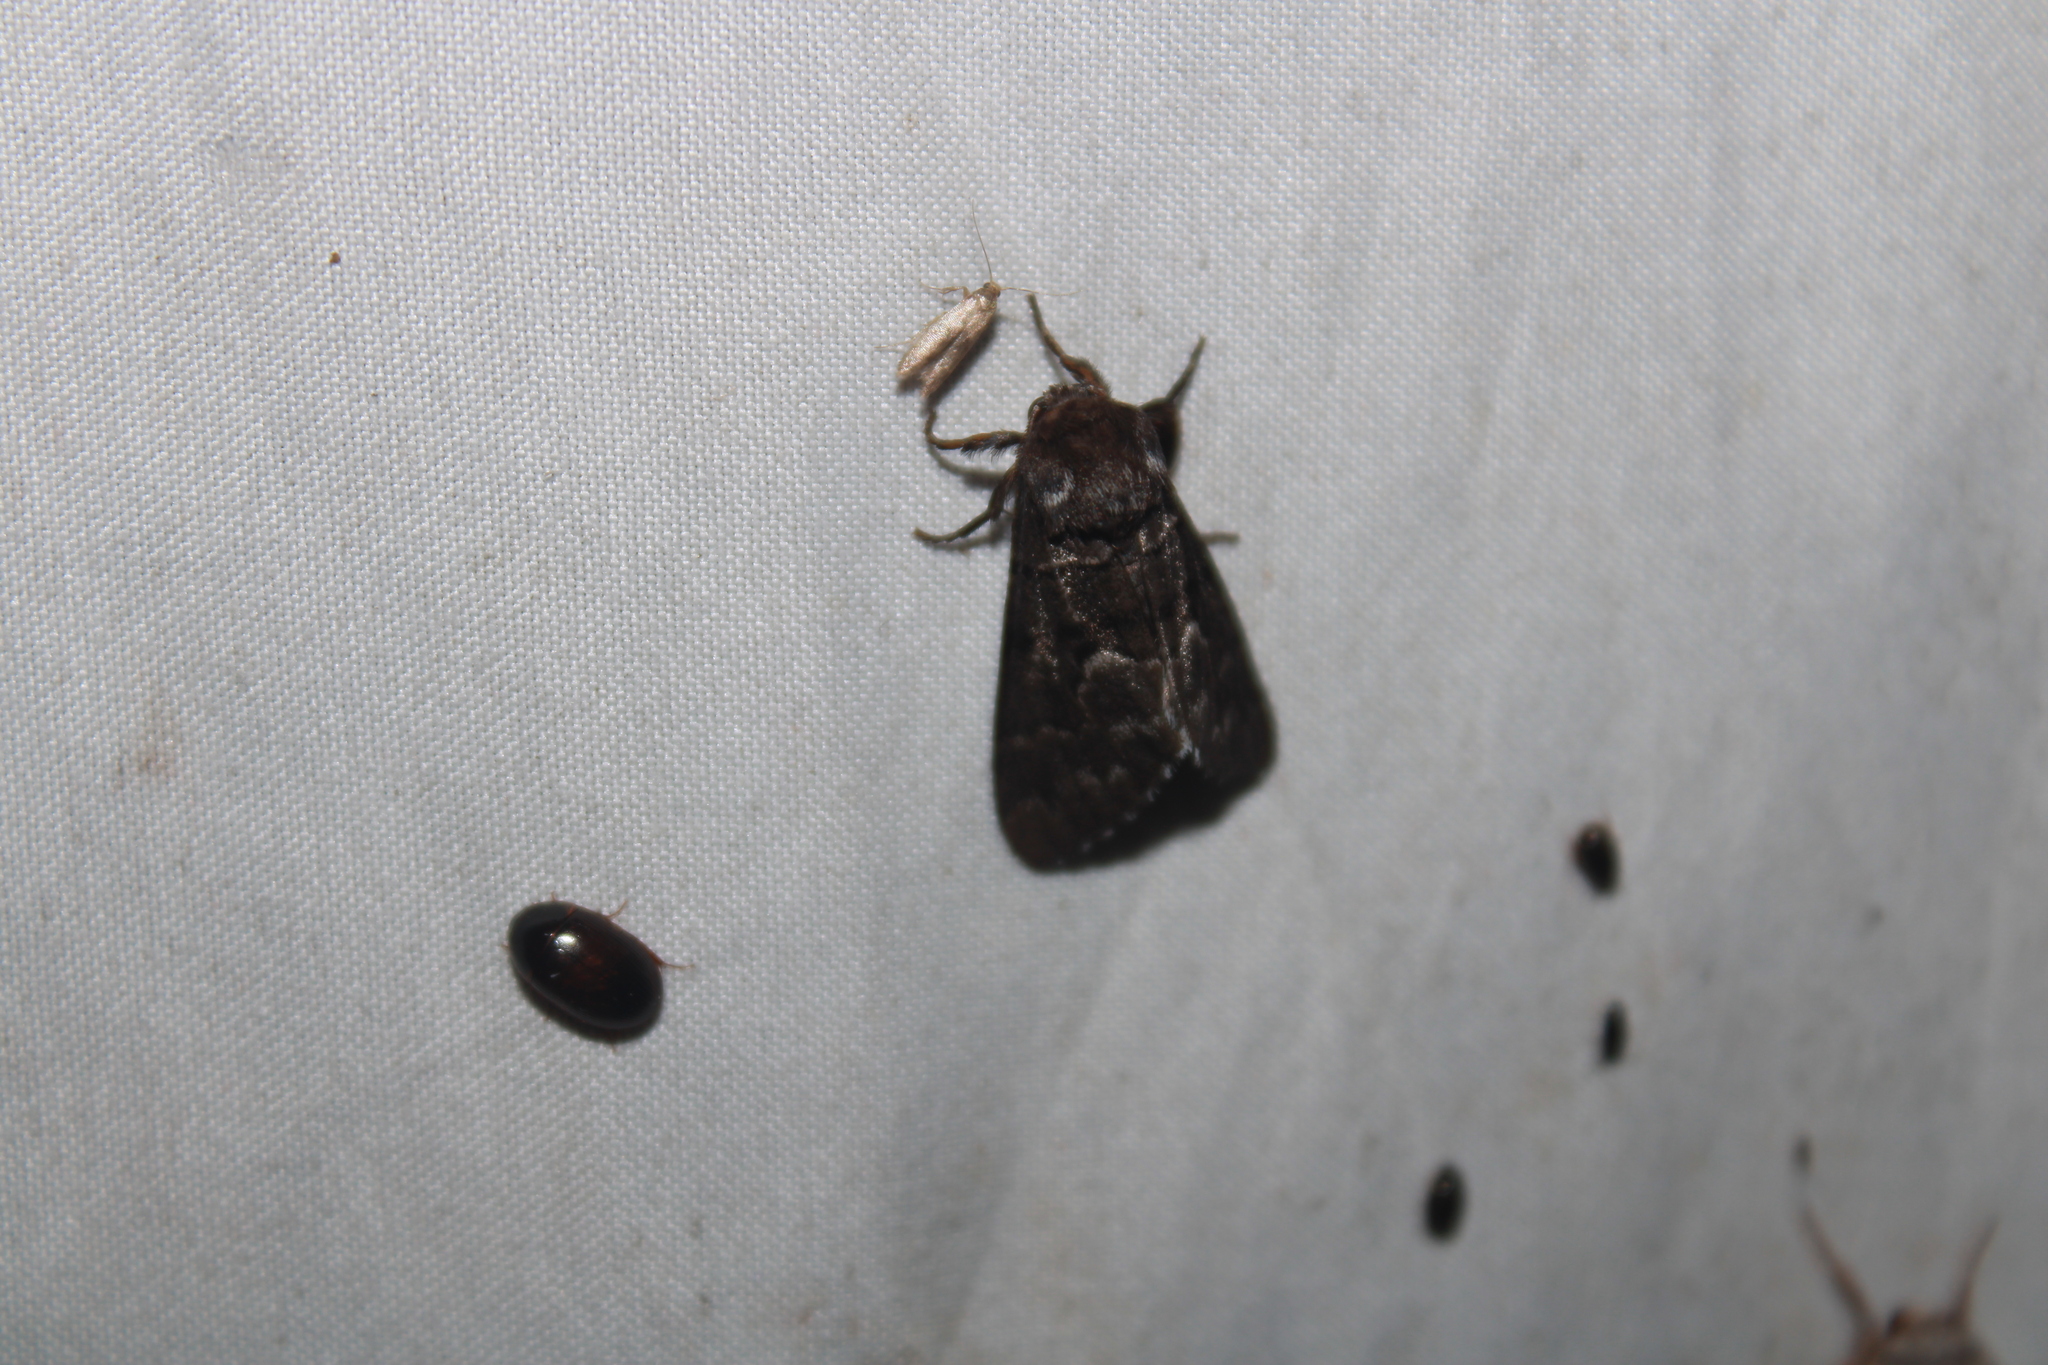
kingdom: Animalia
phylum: Arthropoda
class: Insecta
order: Lepidoptera
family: Noctuidae
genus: Panthea
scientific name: Panthea furcilla
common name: Eastern panthea moth
